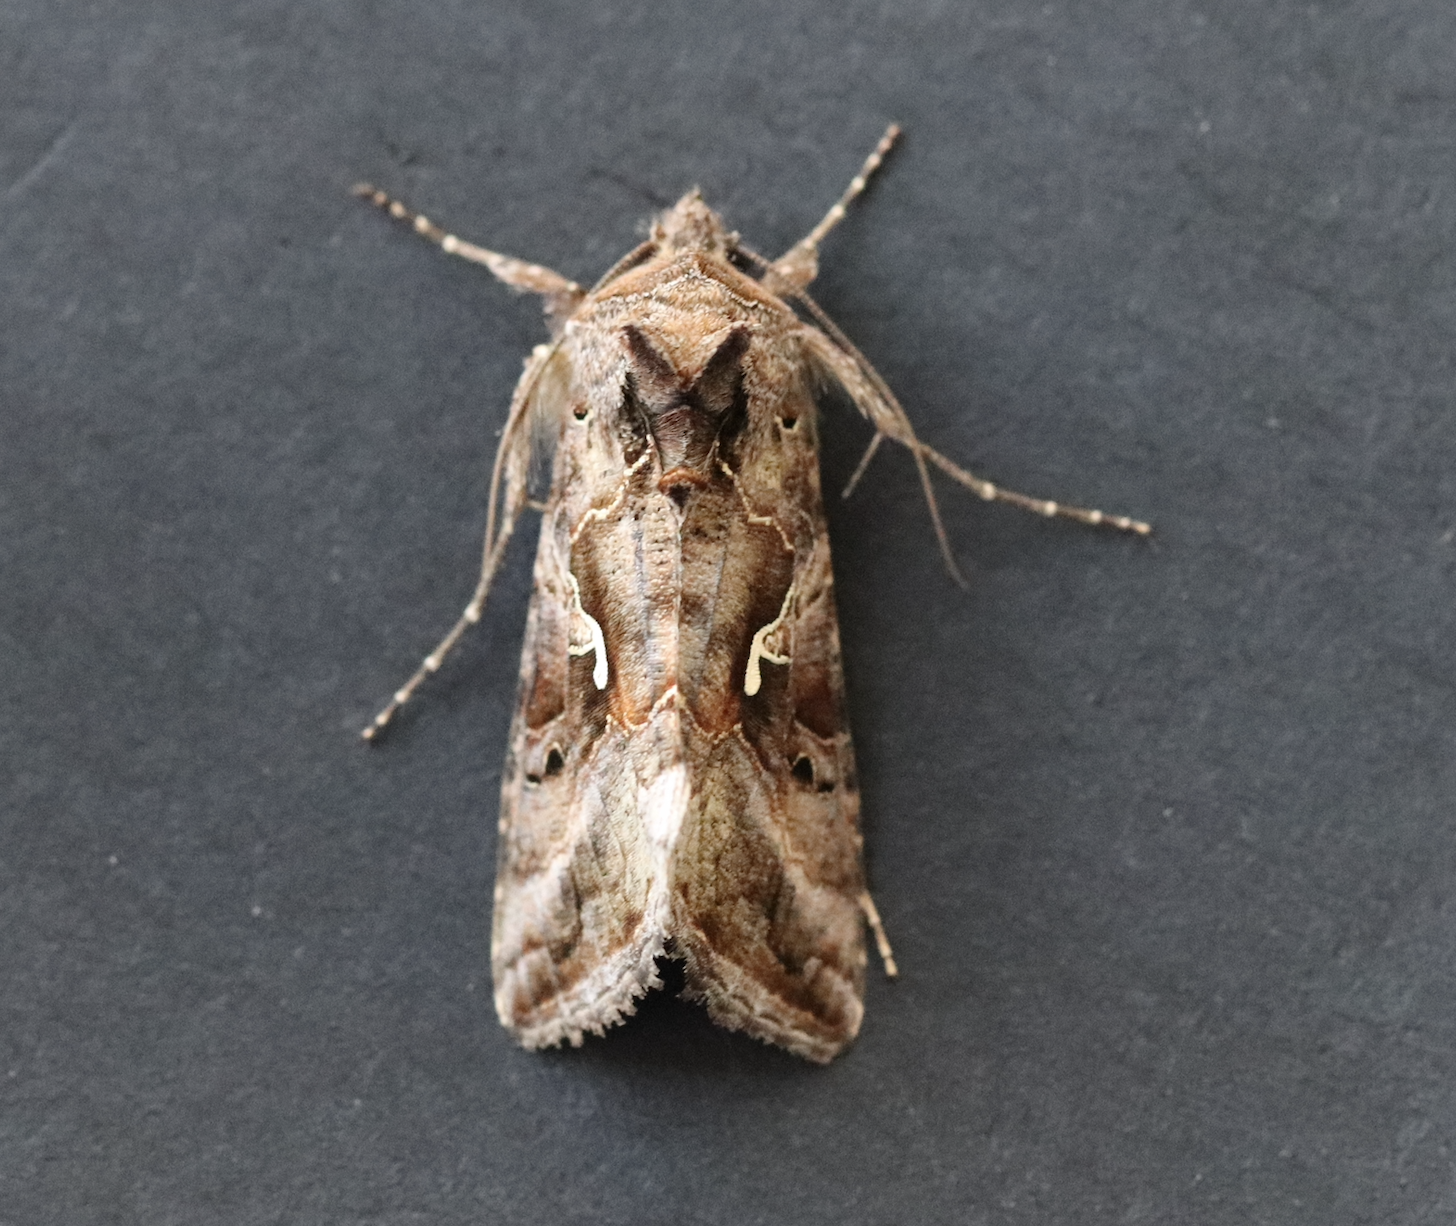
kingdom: Animalia
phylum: Arthropoda
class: Insecta
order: Lepidoptera
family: Noctuidae
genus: Autographa
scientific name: Autographa gamma
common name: Silver y
